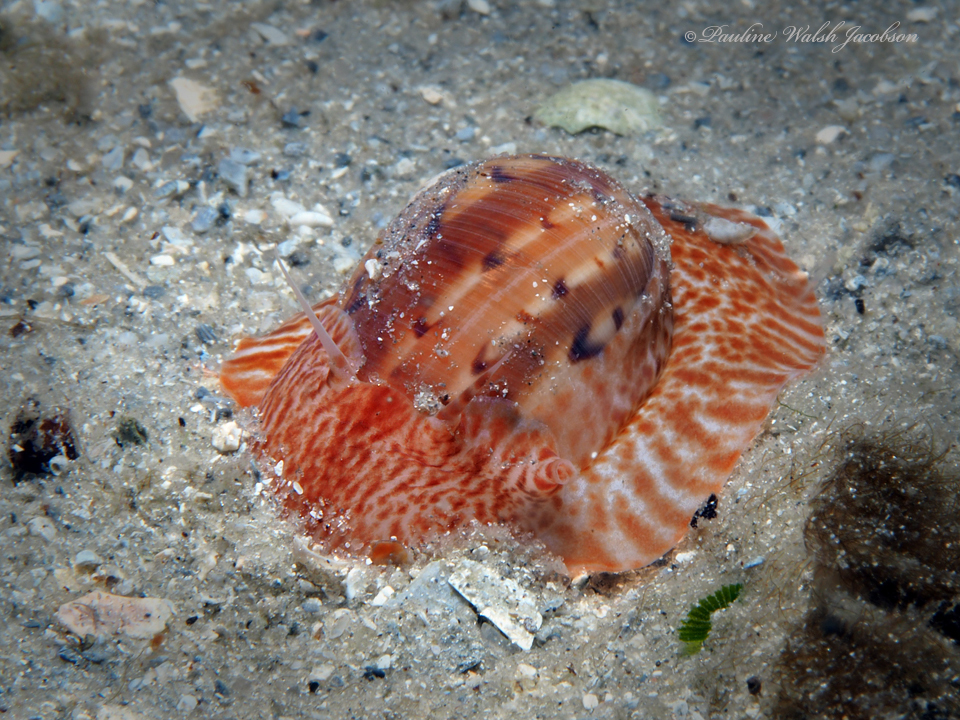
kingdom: Animalia
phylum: Mollusca
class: Gastropoda
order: Littorinimorpha
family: Naticidae
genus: Naticarius
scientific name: Naticarius canrena
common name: Colorful moonsnail
